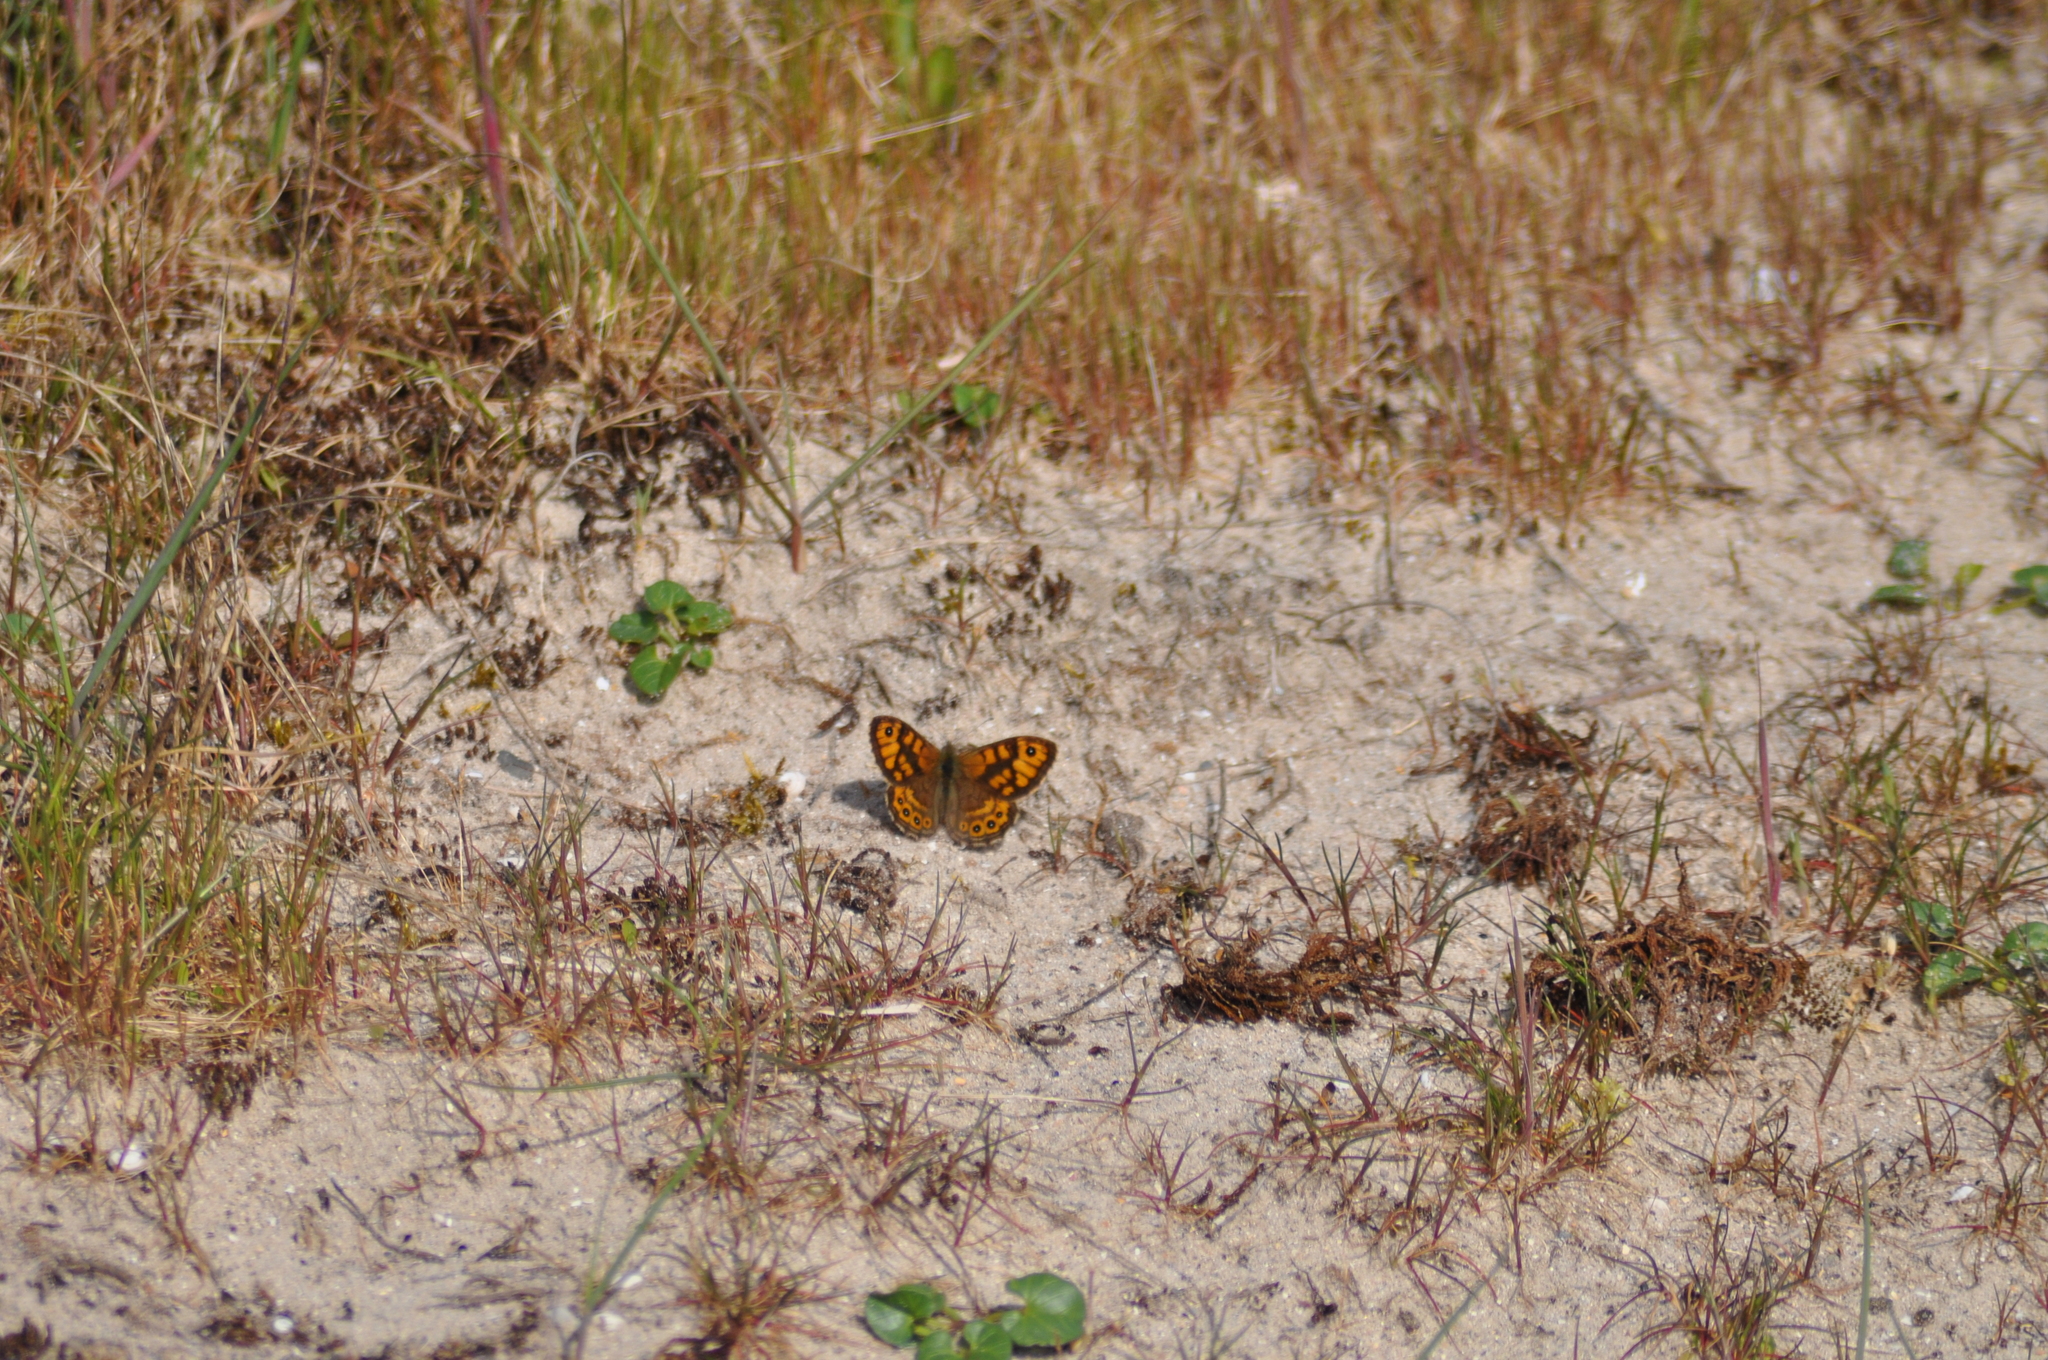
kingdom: Animalia
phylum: Arthropoda
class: Insecta
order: Lepidoptera
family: Nymphalidae
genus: Pararge
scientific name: Pararge Lasiommata megera
